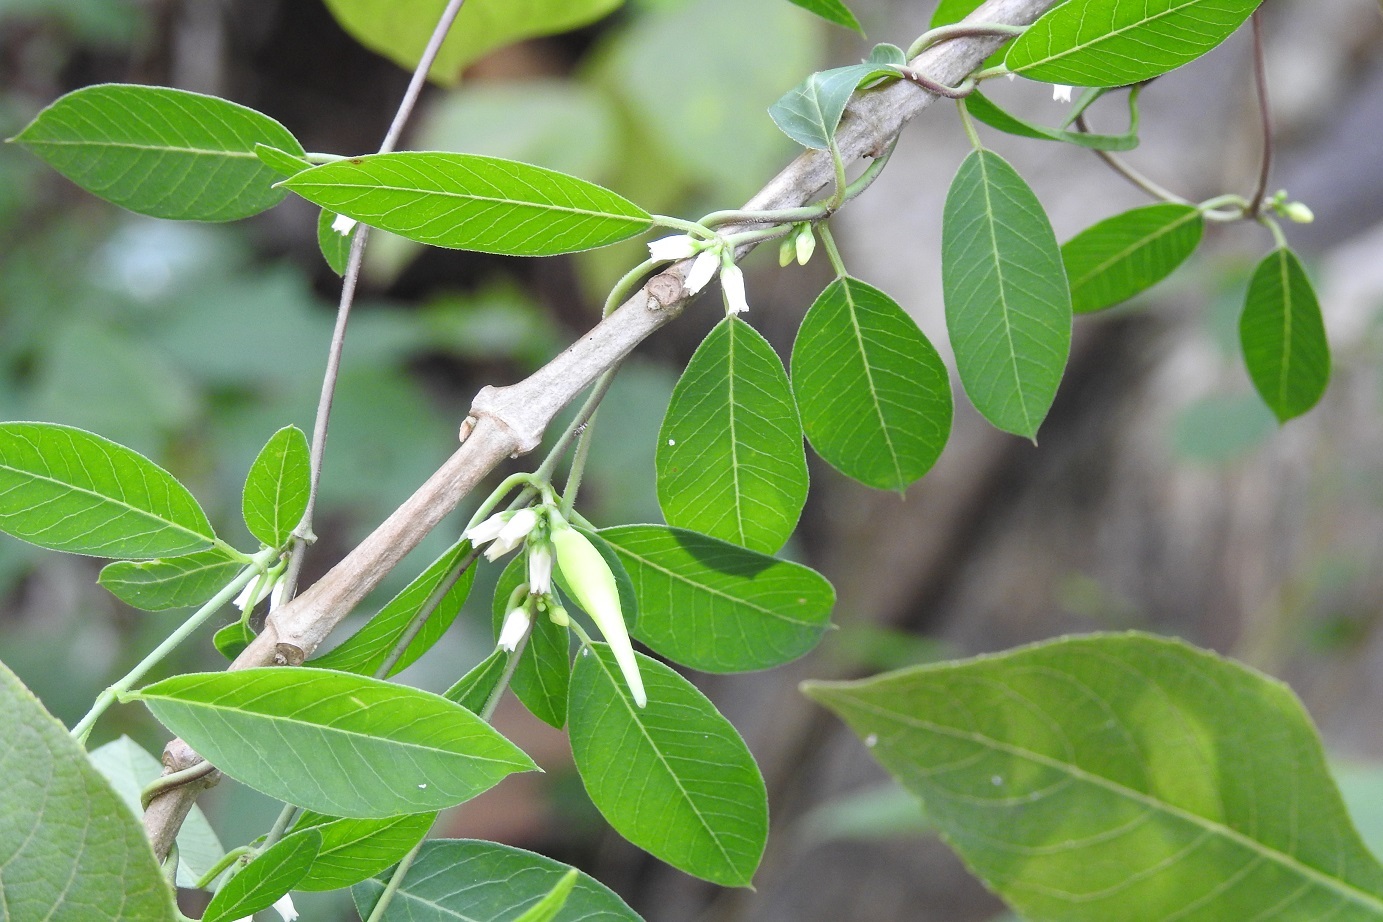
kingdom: Plantae
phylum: Tracheophyta
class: Magnoliopsida
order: Gentianales
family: Apocynaceae
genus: Metastelma
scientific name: Metastelma schlechtendalii
